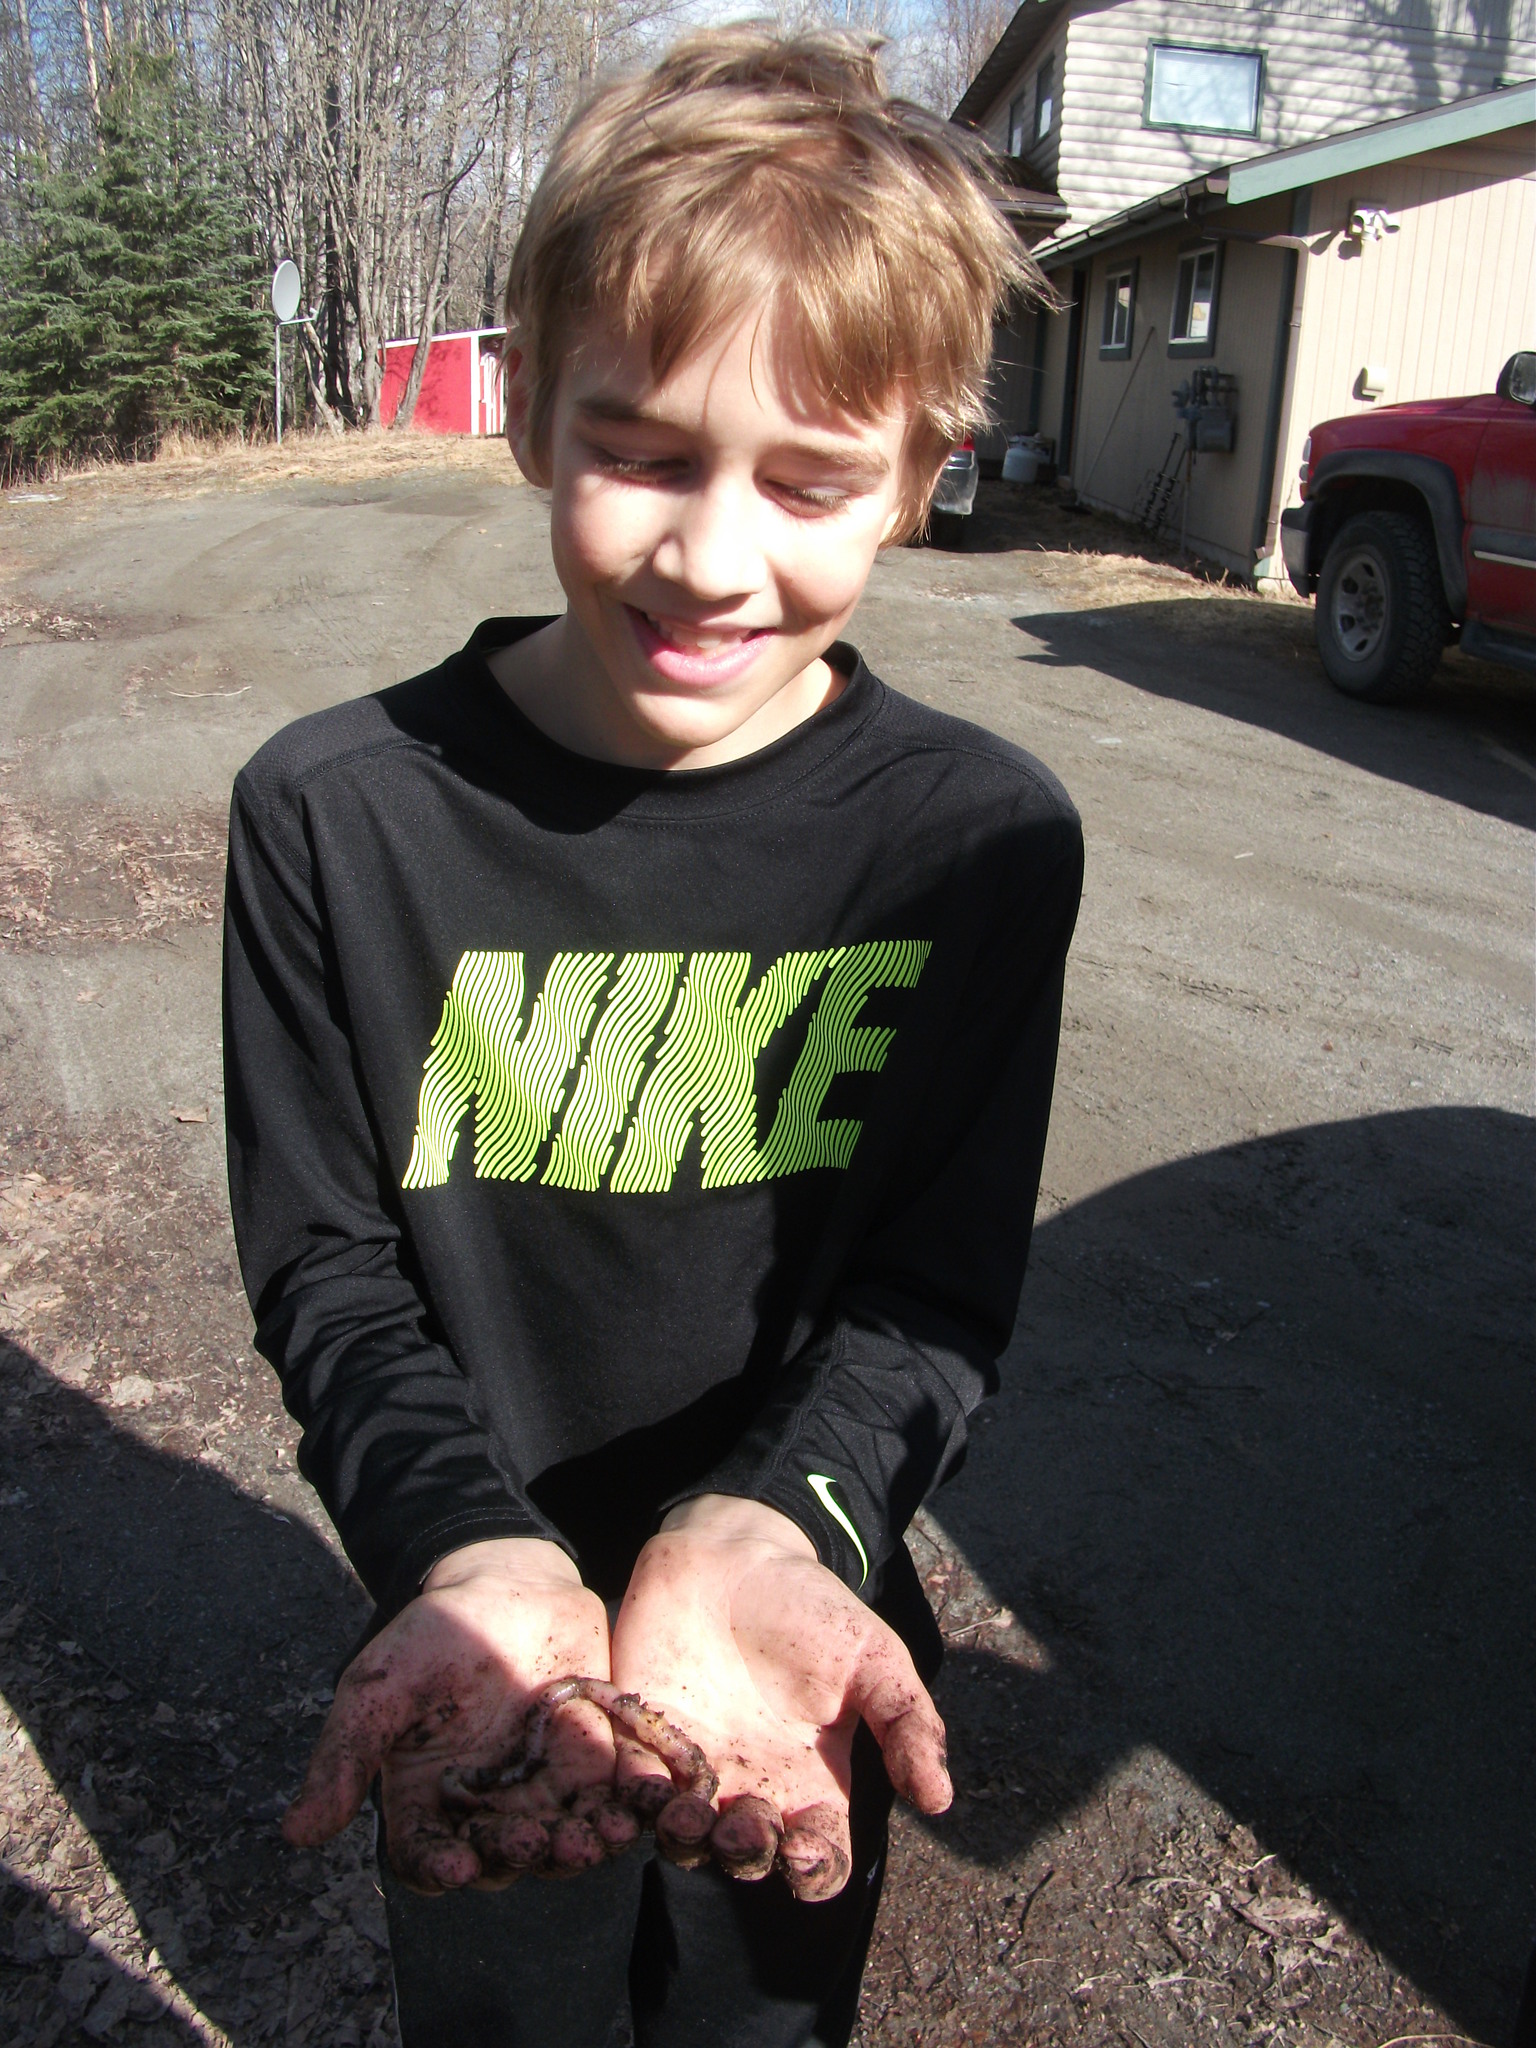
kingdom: Animalia
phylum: Annelida
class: Clitellata
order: Crassiclitellata
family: Lumbricidae
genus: Lumbricus
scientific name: Lumbricus terrestris
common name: Common earthworm
